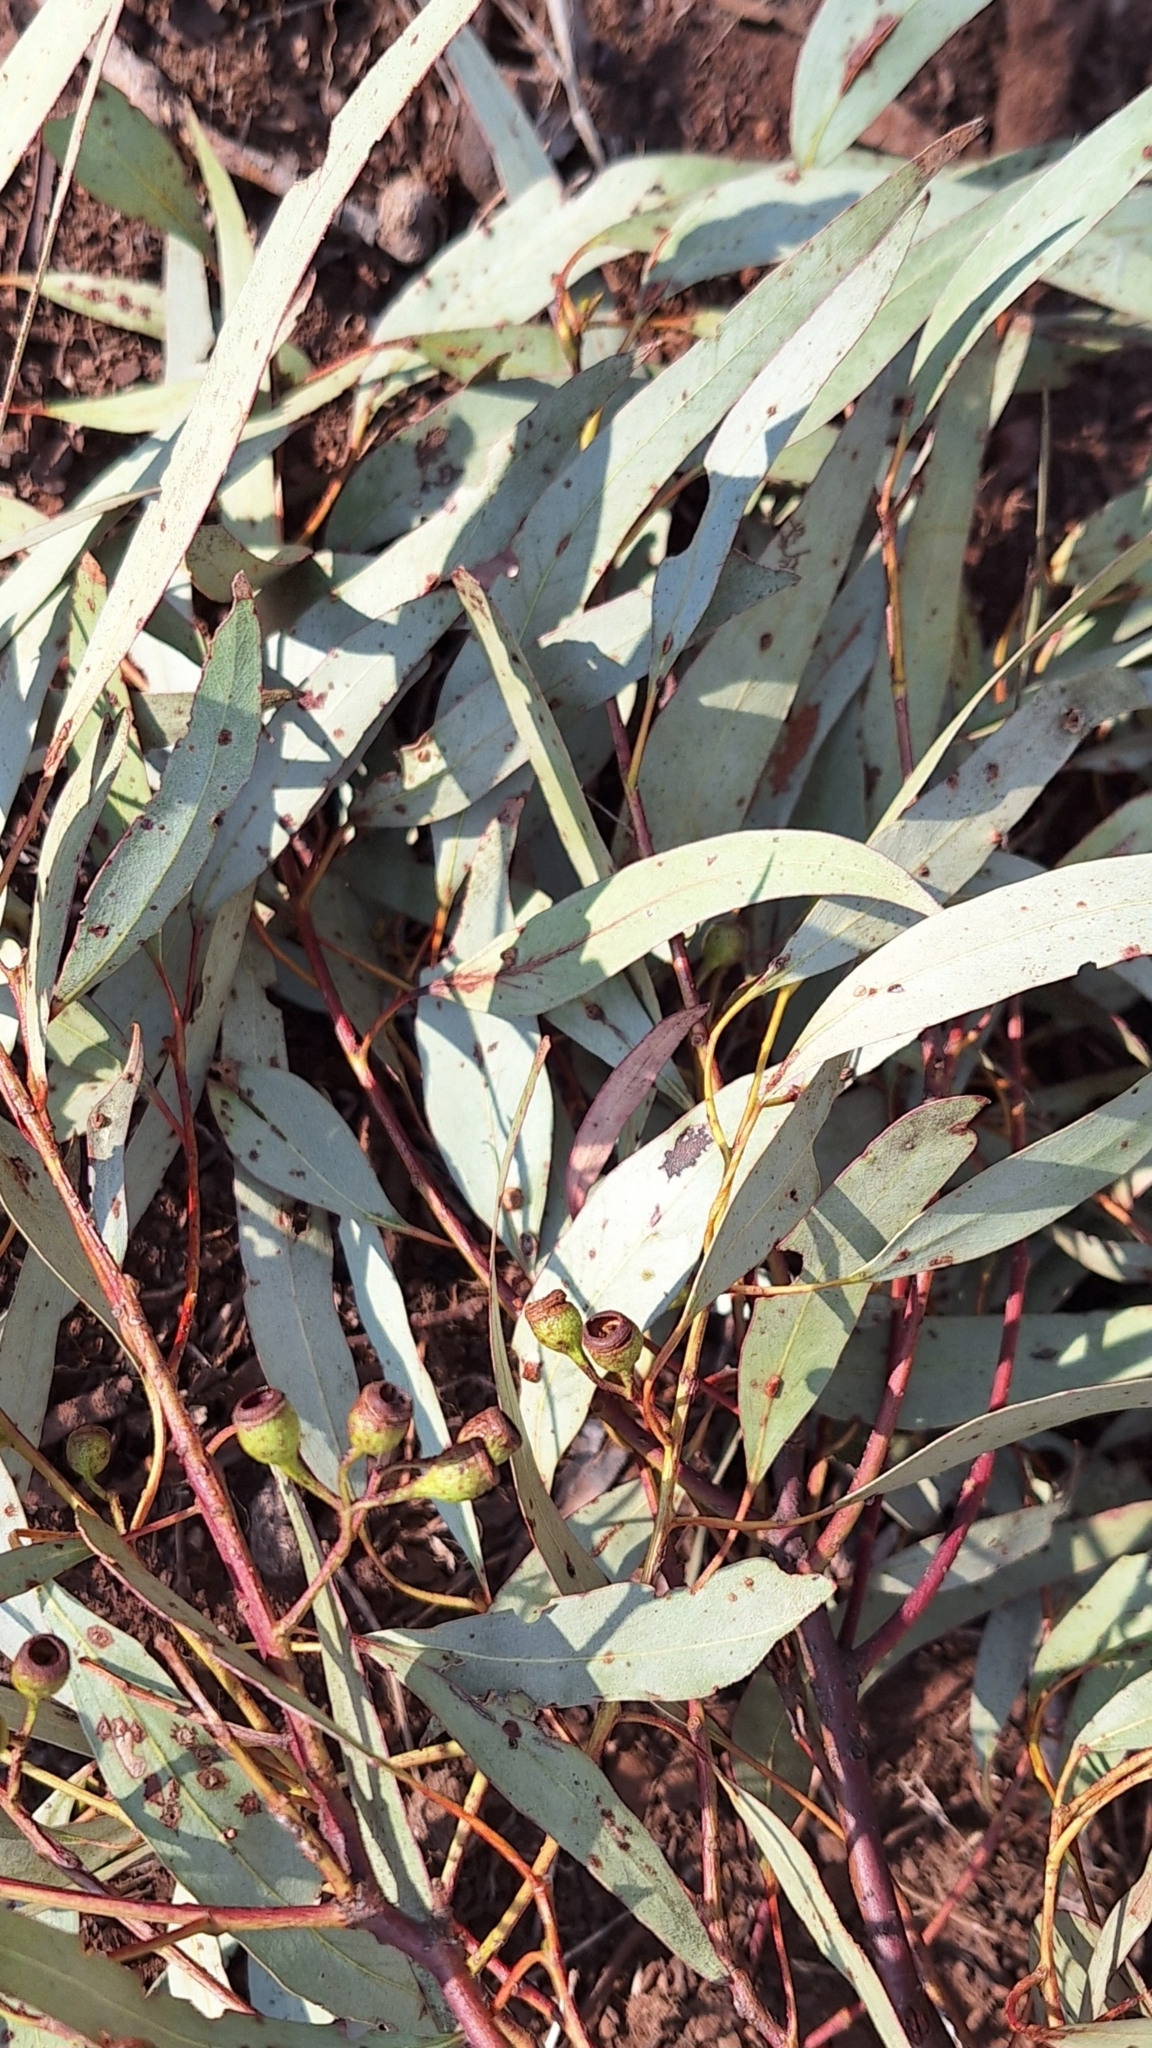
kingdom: Plantae
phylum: Tracheophyta
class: Magnoliopsida
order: Myrtales
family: Myrtaceae
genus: Eucalyptus
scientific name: Eucalyptus leucoxylon
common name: Blue gum
